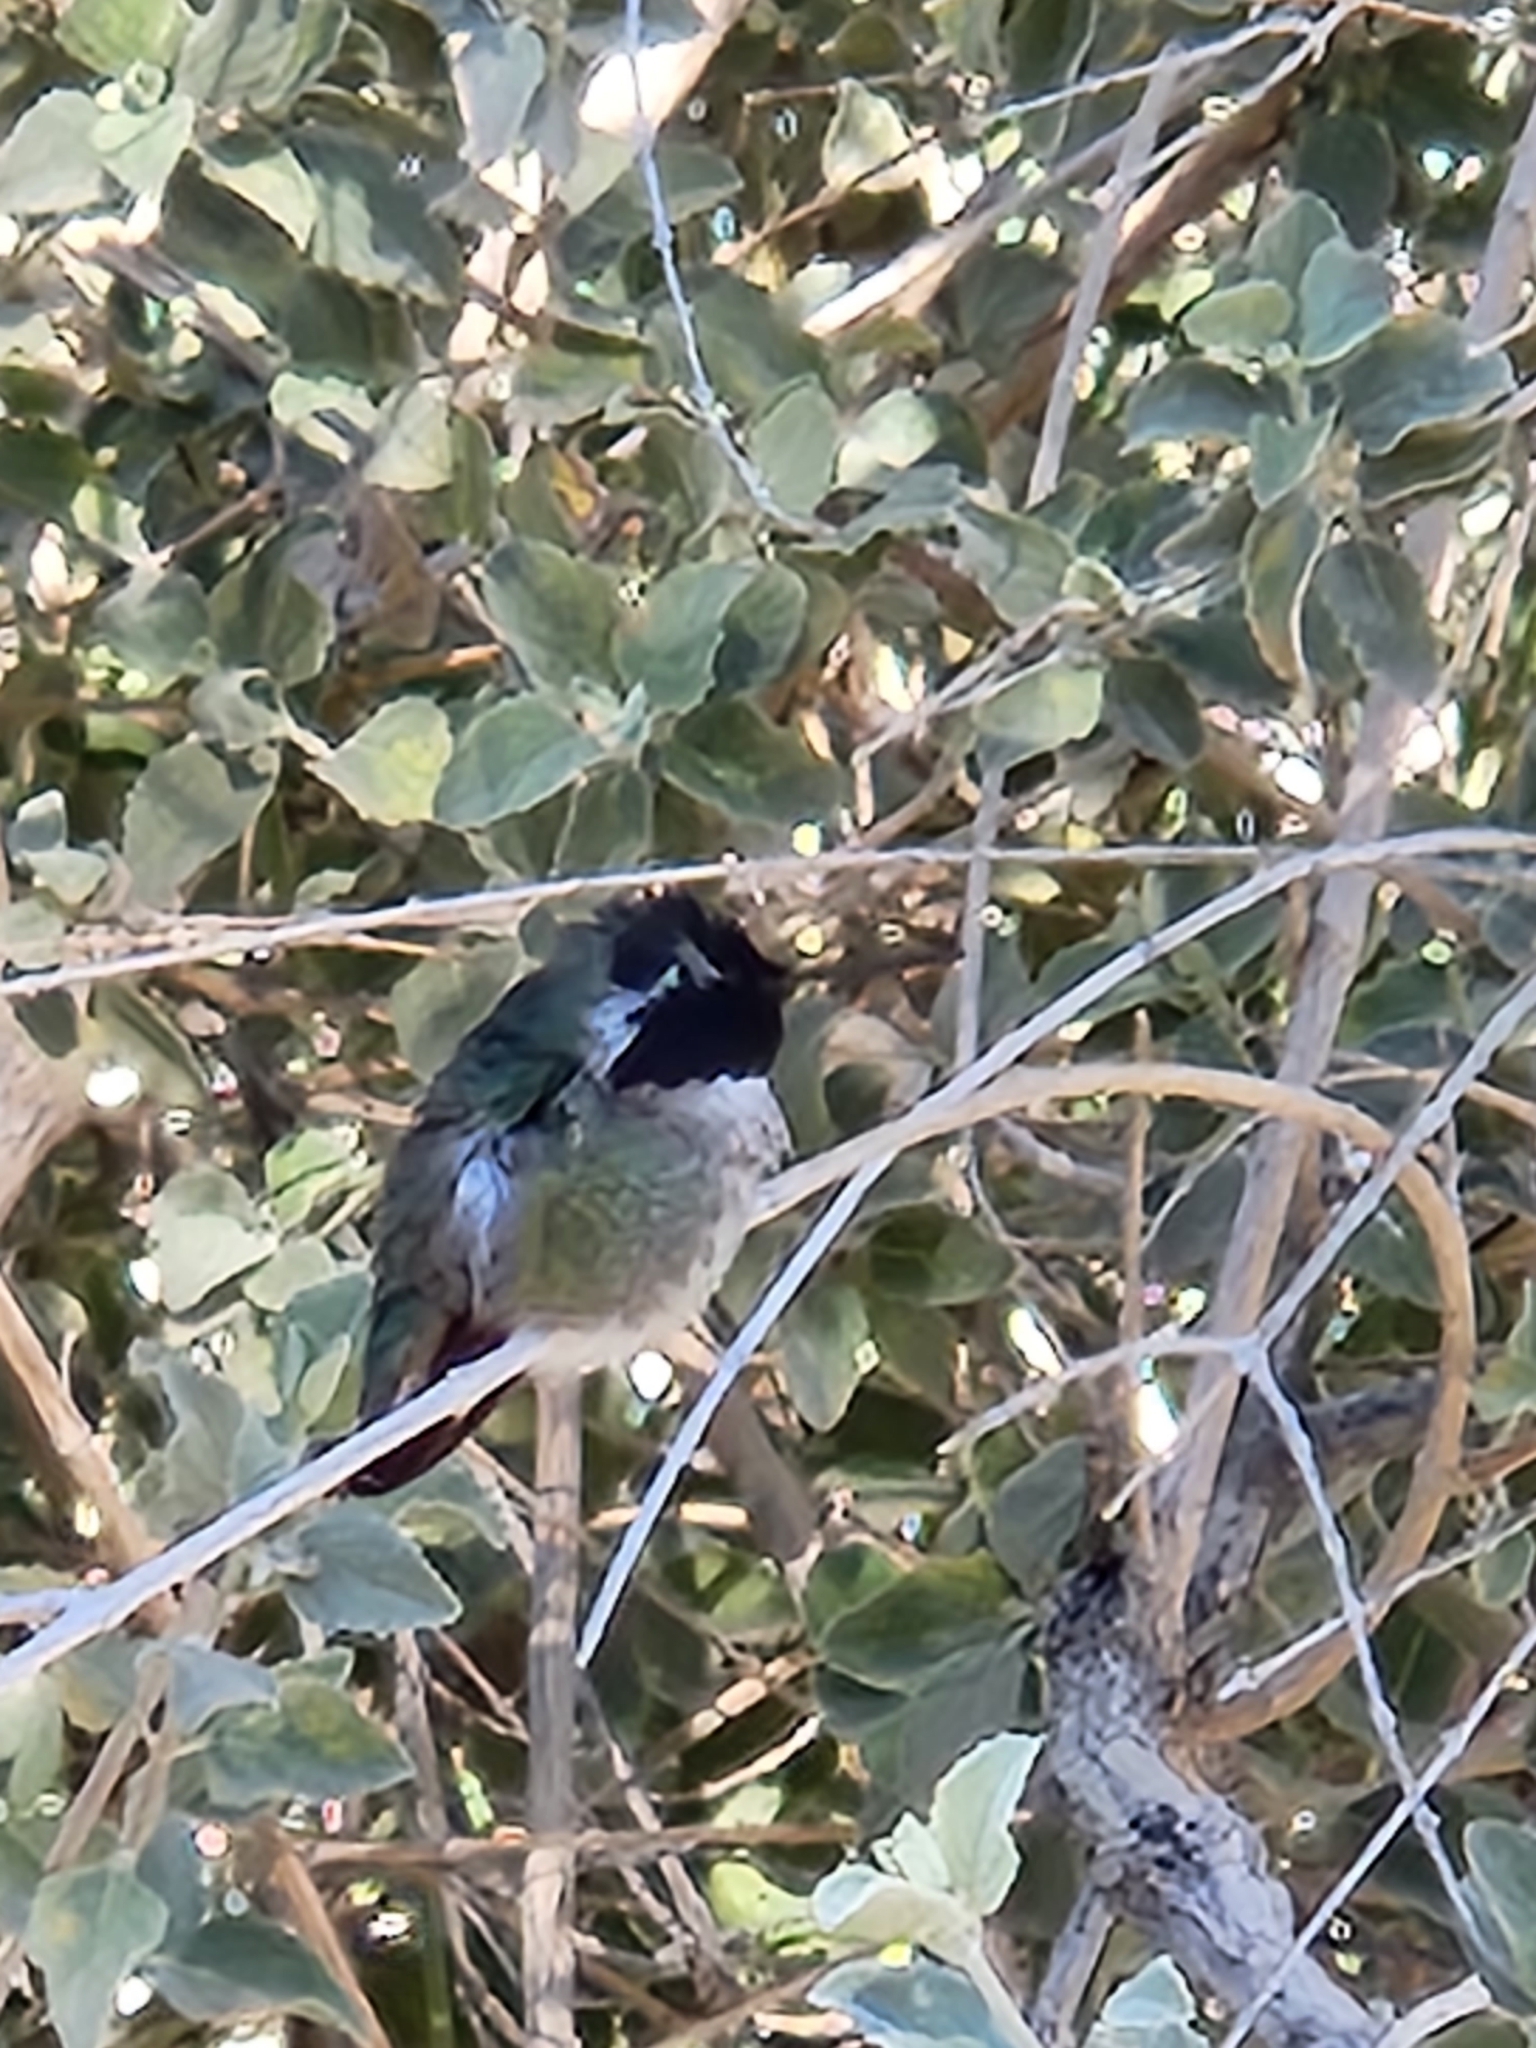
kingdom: Animalia
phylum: Chordata
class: Aves
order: Apodiformes
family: Trochilidae
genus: Calypte
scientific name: Calypte costae
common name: Costa's hummingbird
